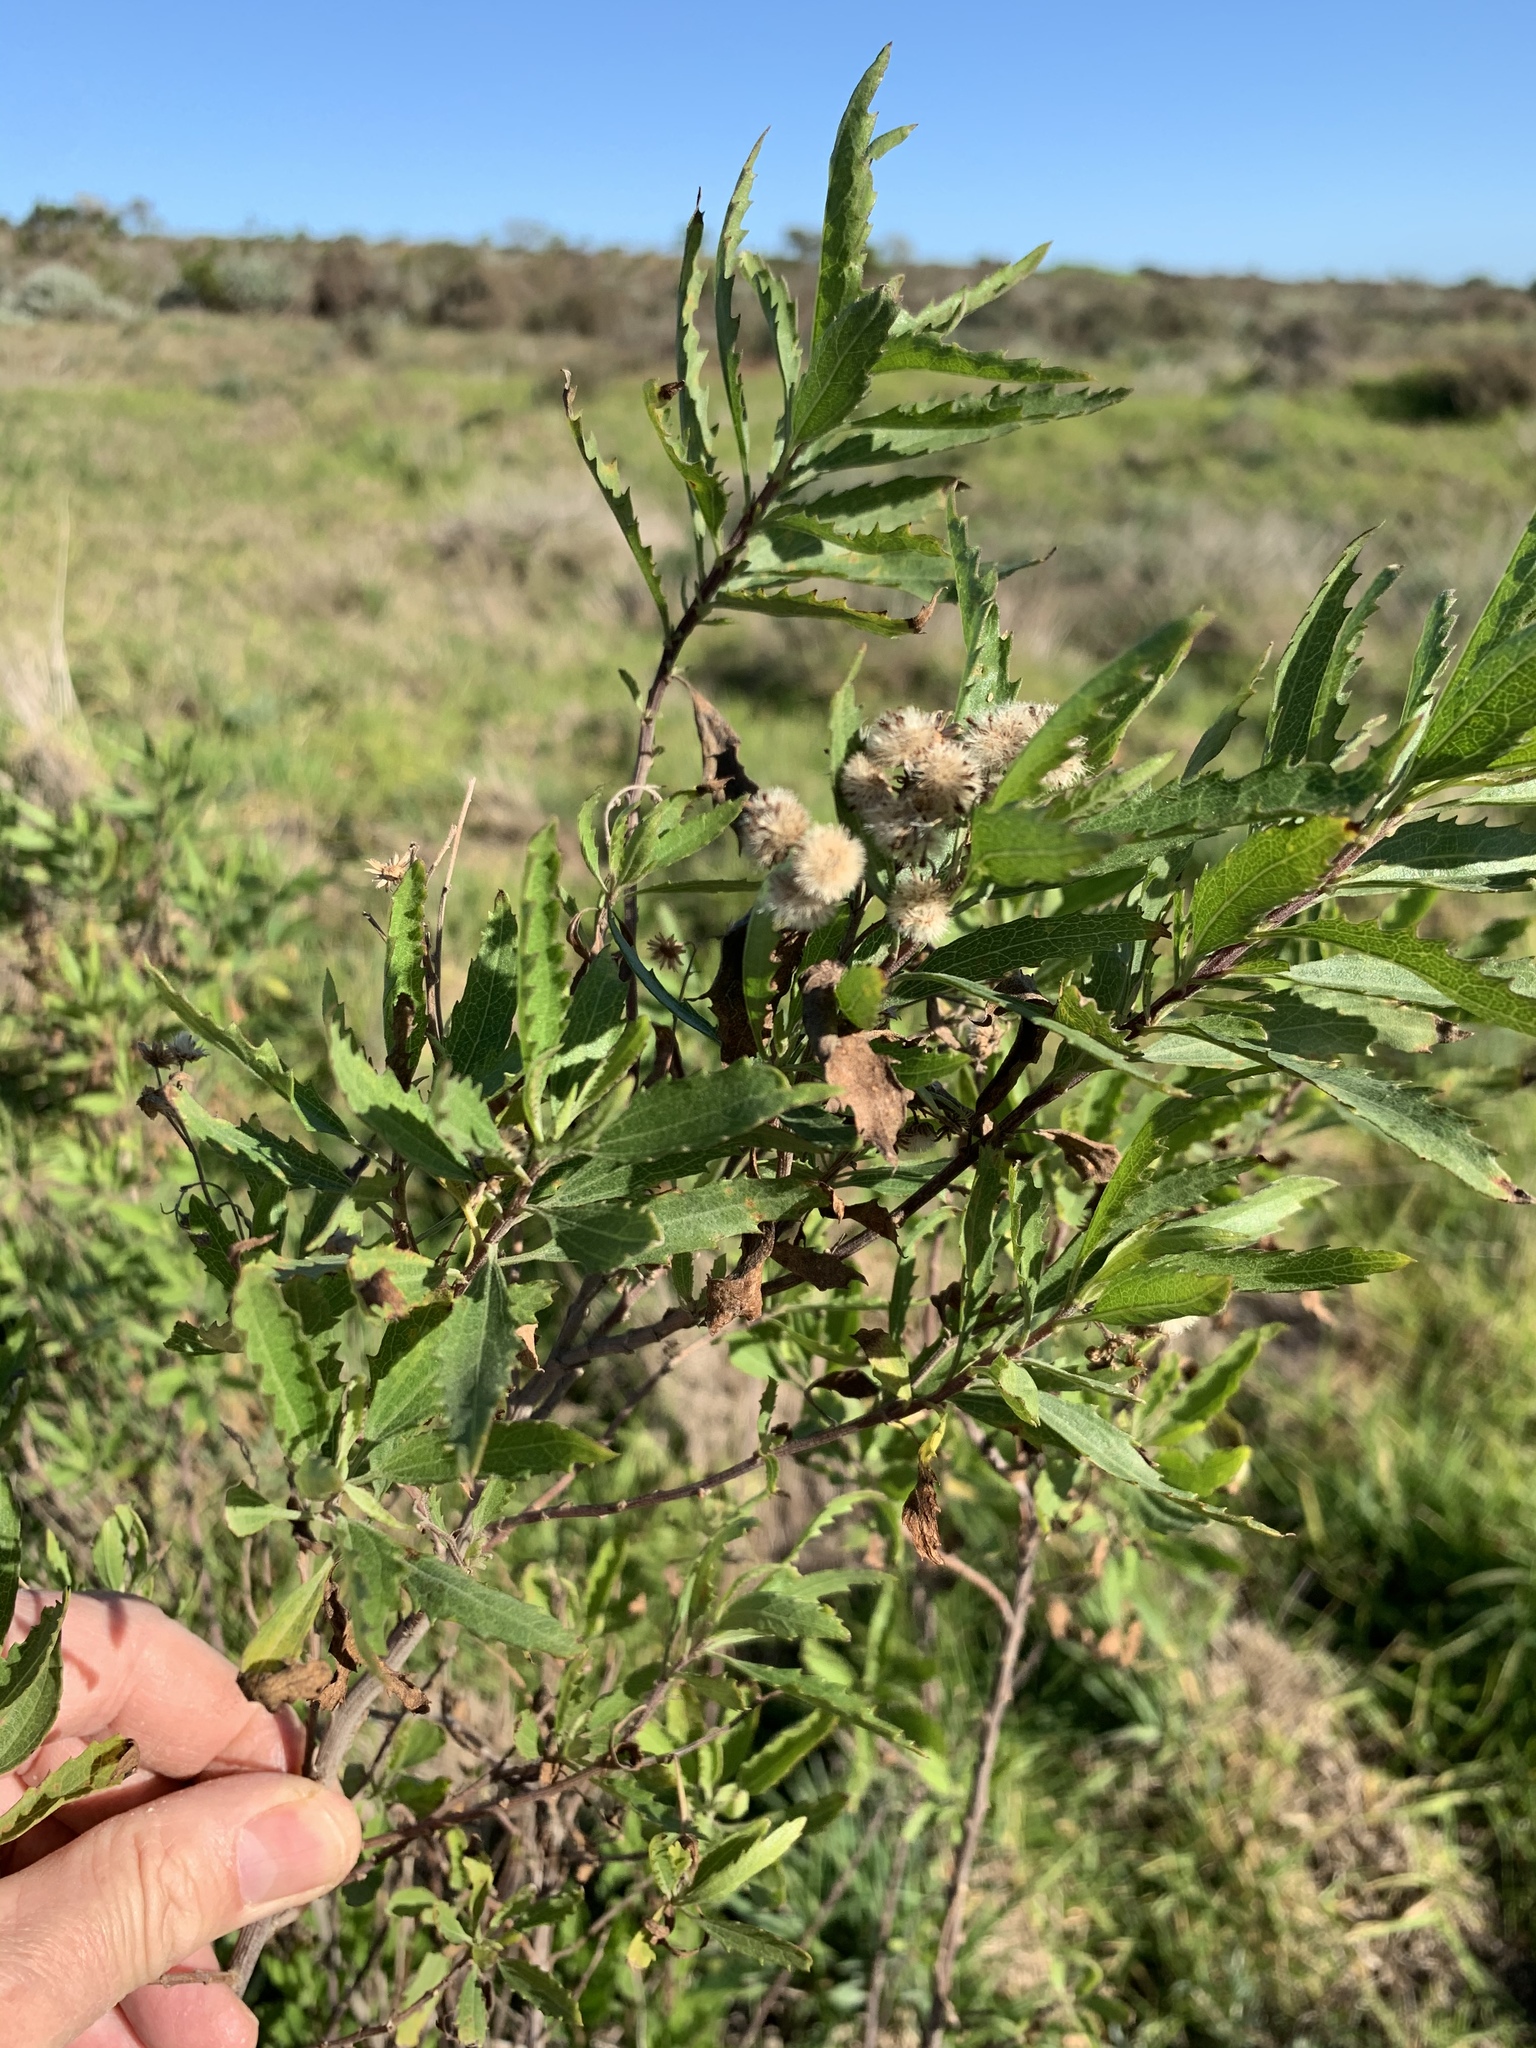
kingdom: Plantae
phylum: Tracheophyta
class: Magnoliopsida
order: Asterales
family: Asteraceae
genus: Nidorella
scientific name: Nidorella ivifolia
